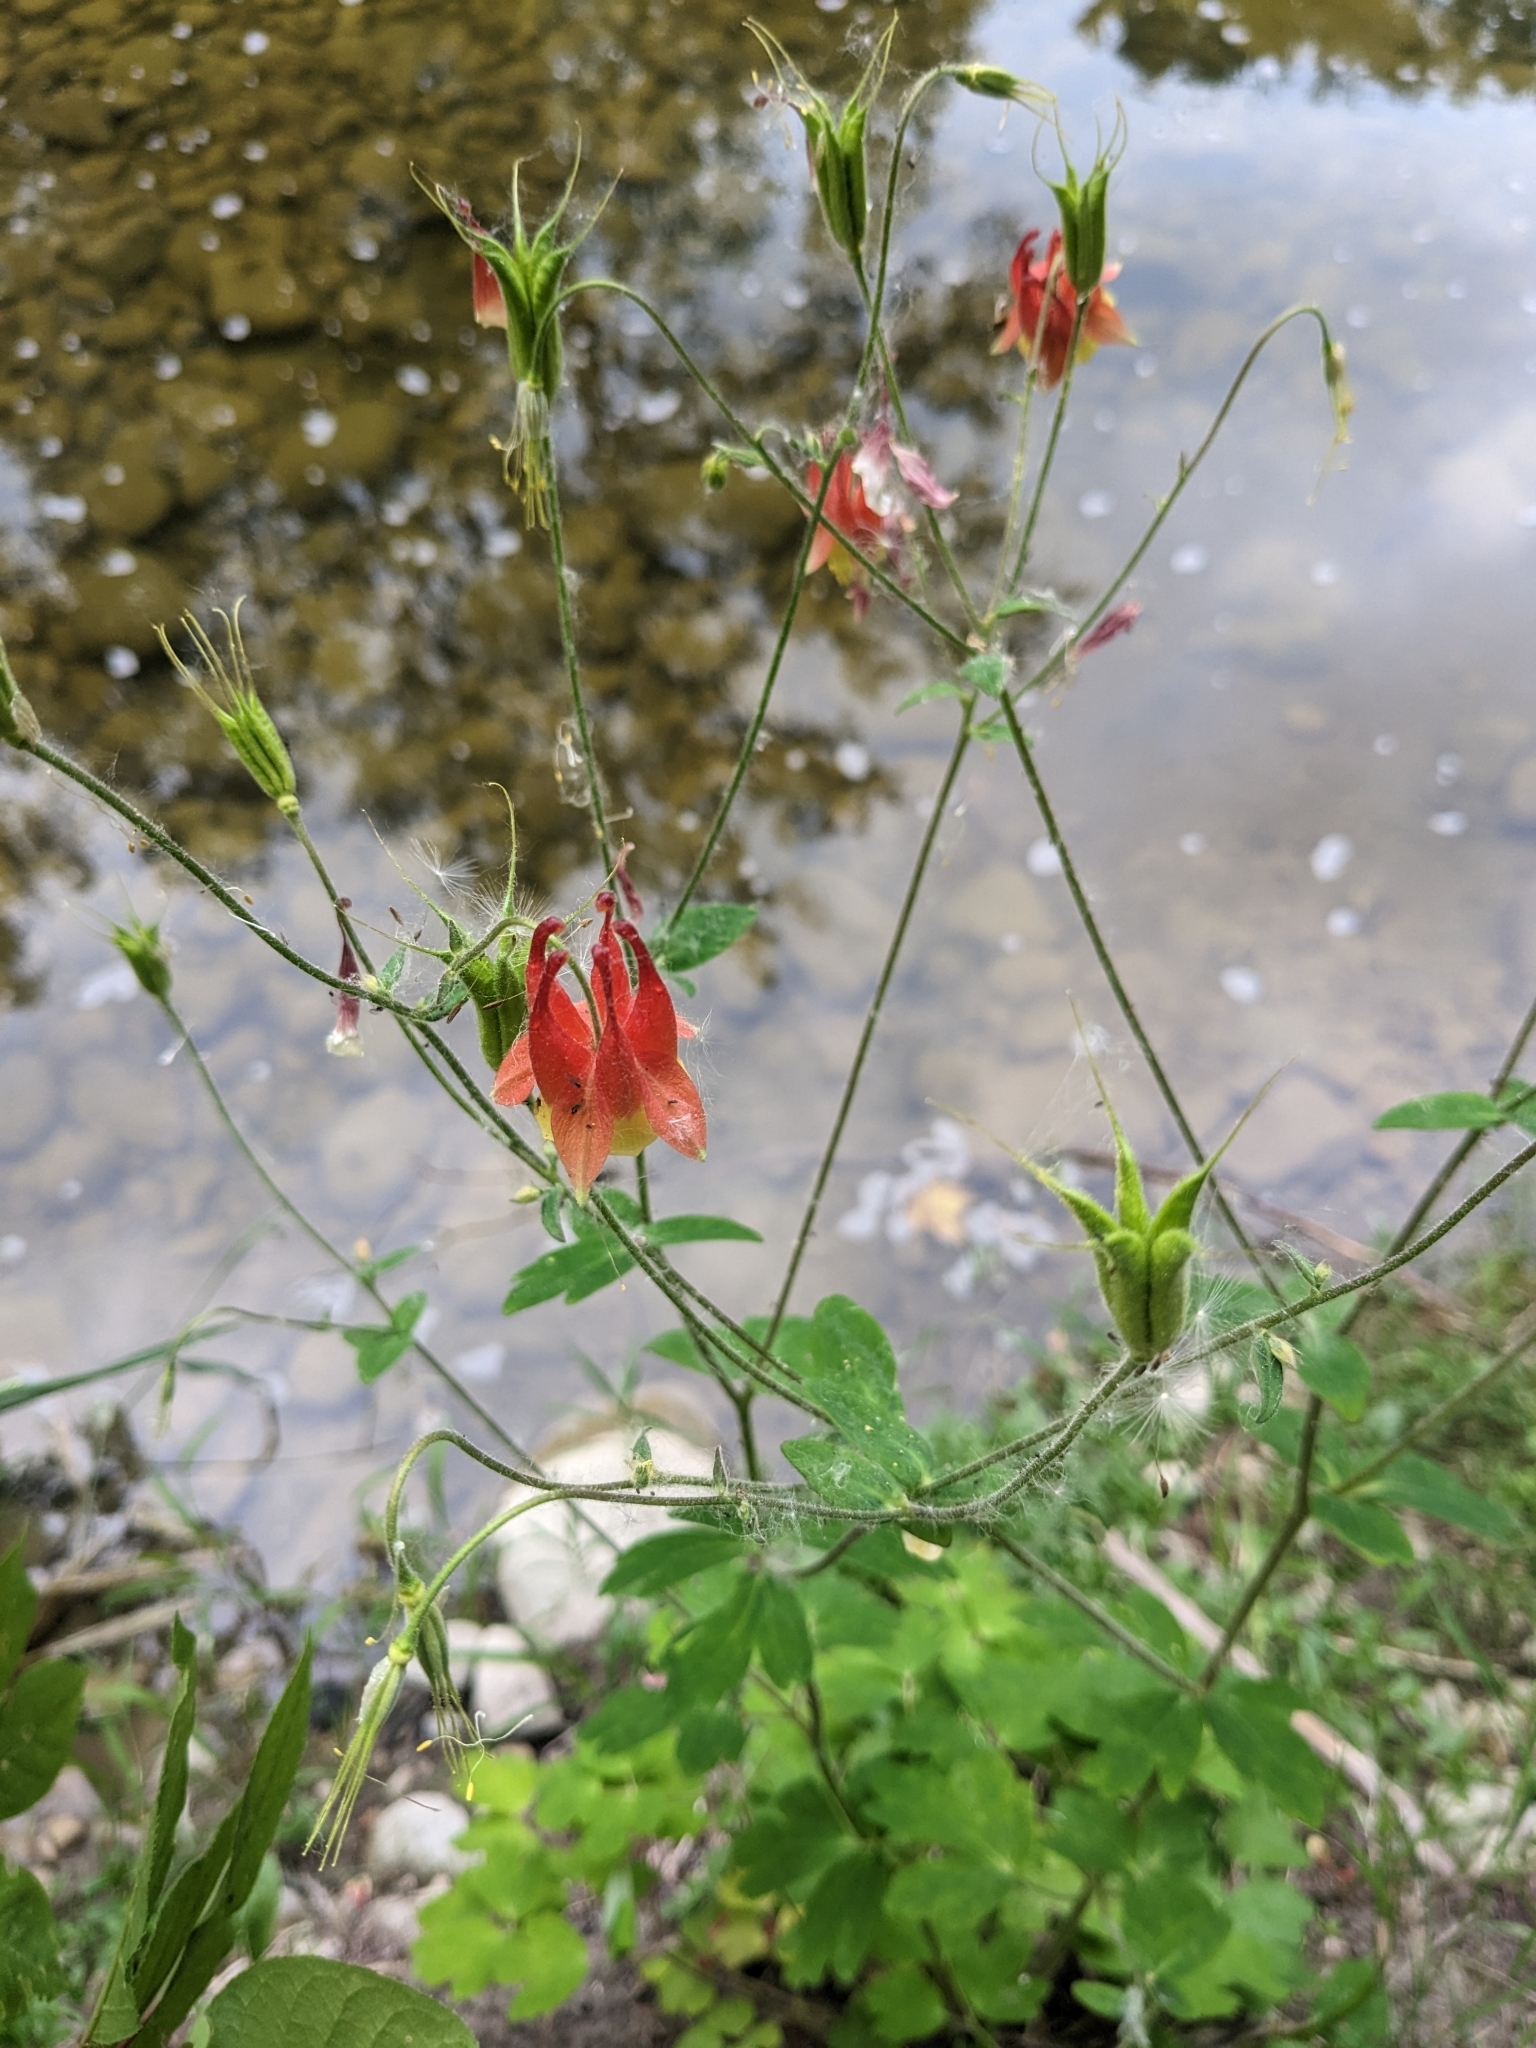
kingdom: Plantae
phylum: Tracheophyta
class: Magnoliopsida
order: Ranunculales
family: Ranunculaceae
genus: Aquilegia
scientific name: Aquilegia canadensis
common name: American columbine
